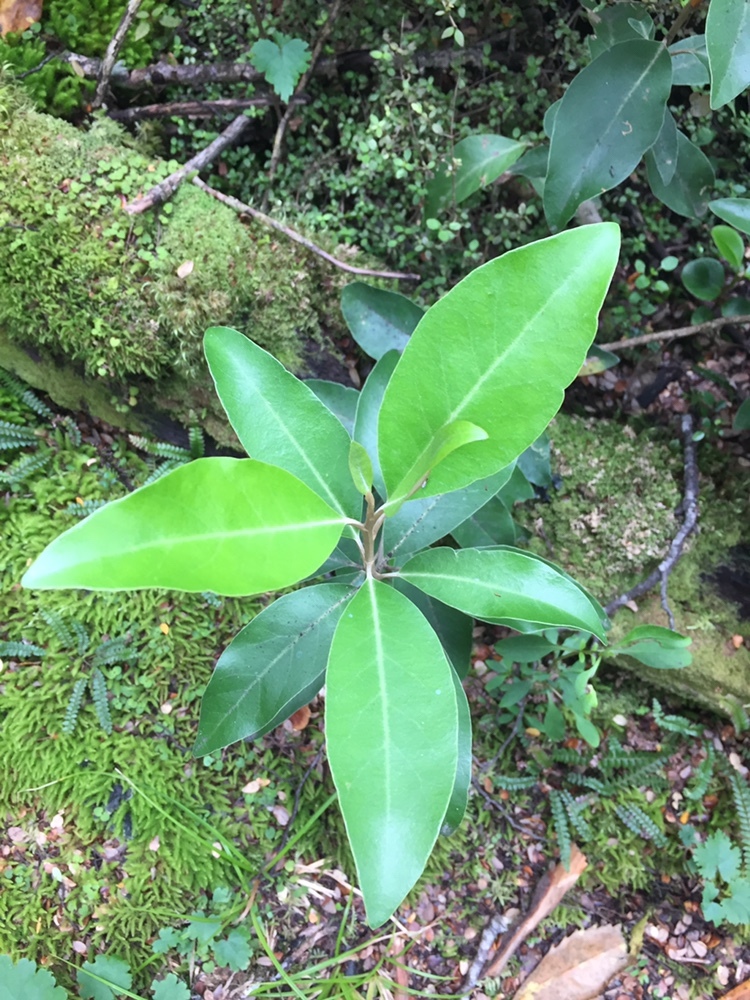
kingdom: Plantae
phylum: Tracheophyta
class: Magnoliopsida
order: Asterales
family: Asteraceae
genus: Olearia
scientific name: Olearia avicenniifolia
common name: Mangrove-leaf daisybush
